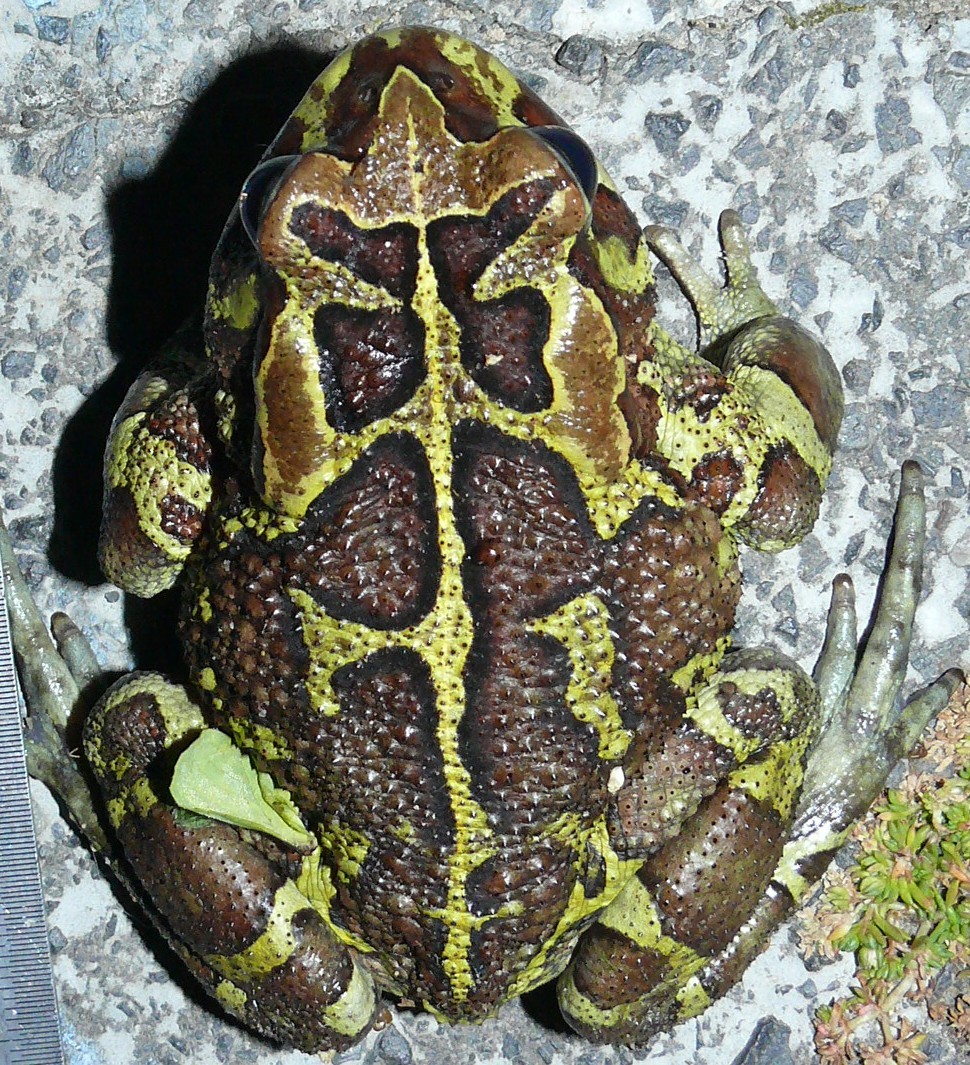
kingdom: Animalia
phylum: Chordata
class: Amphibia
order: Anura
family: Bufonidae
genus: Sclerophrys
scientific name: Sclerophrys pantherina
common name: Panther toad
